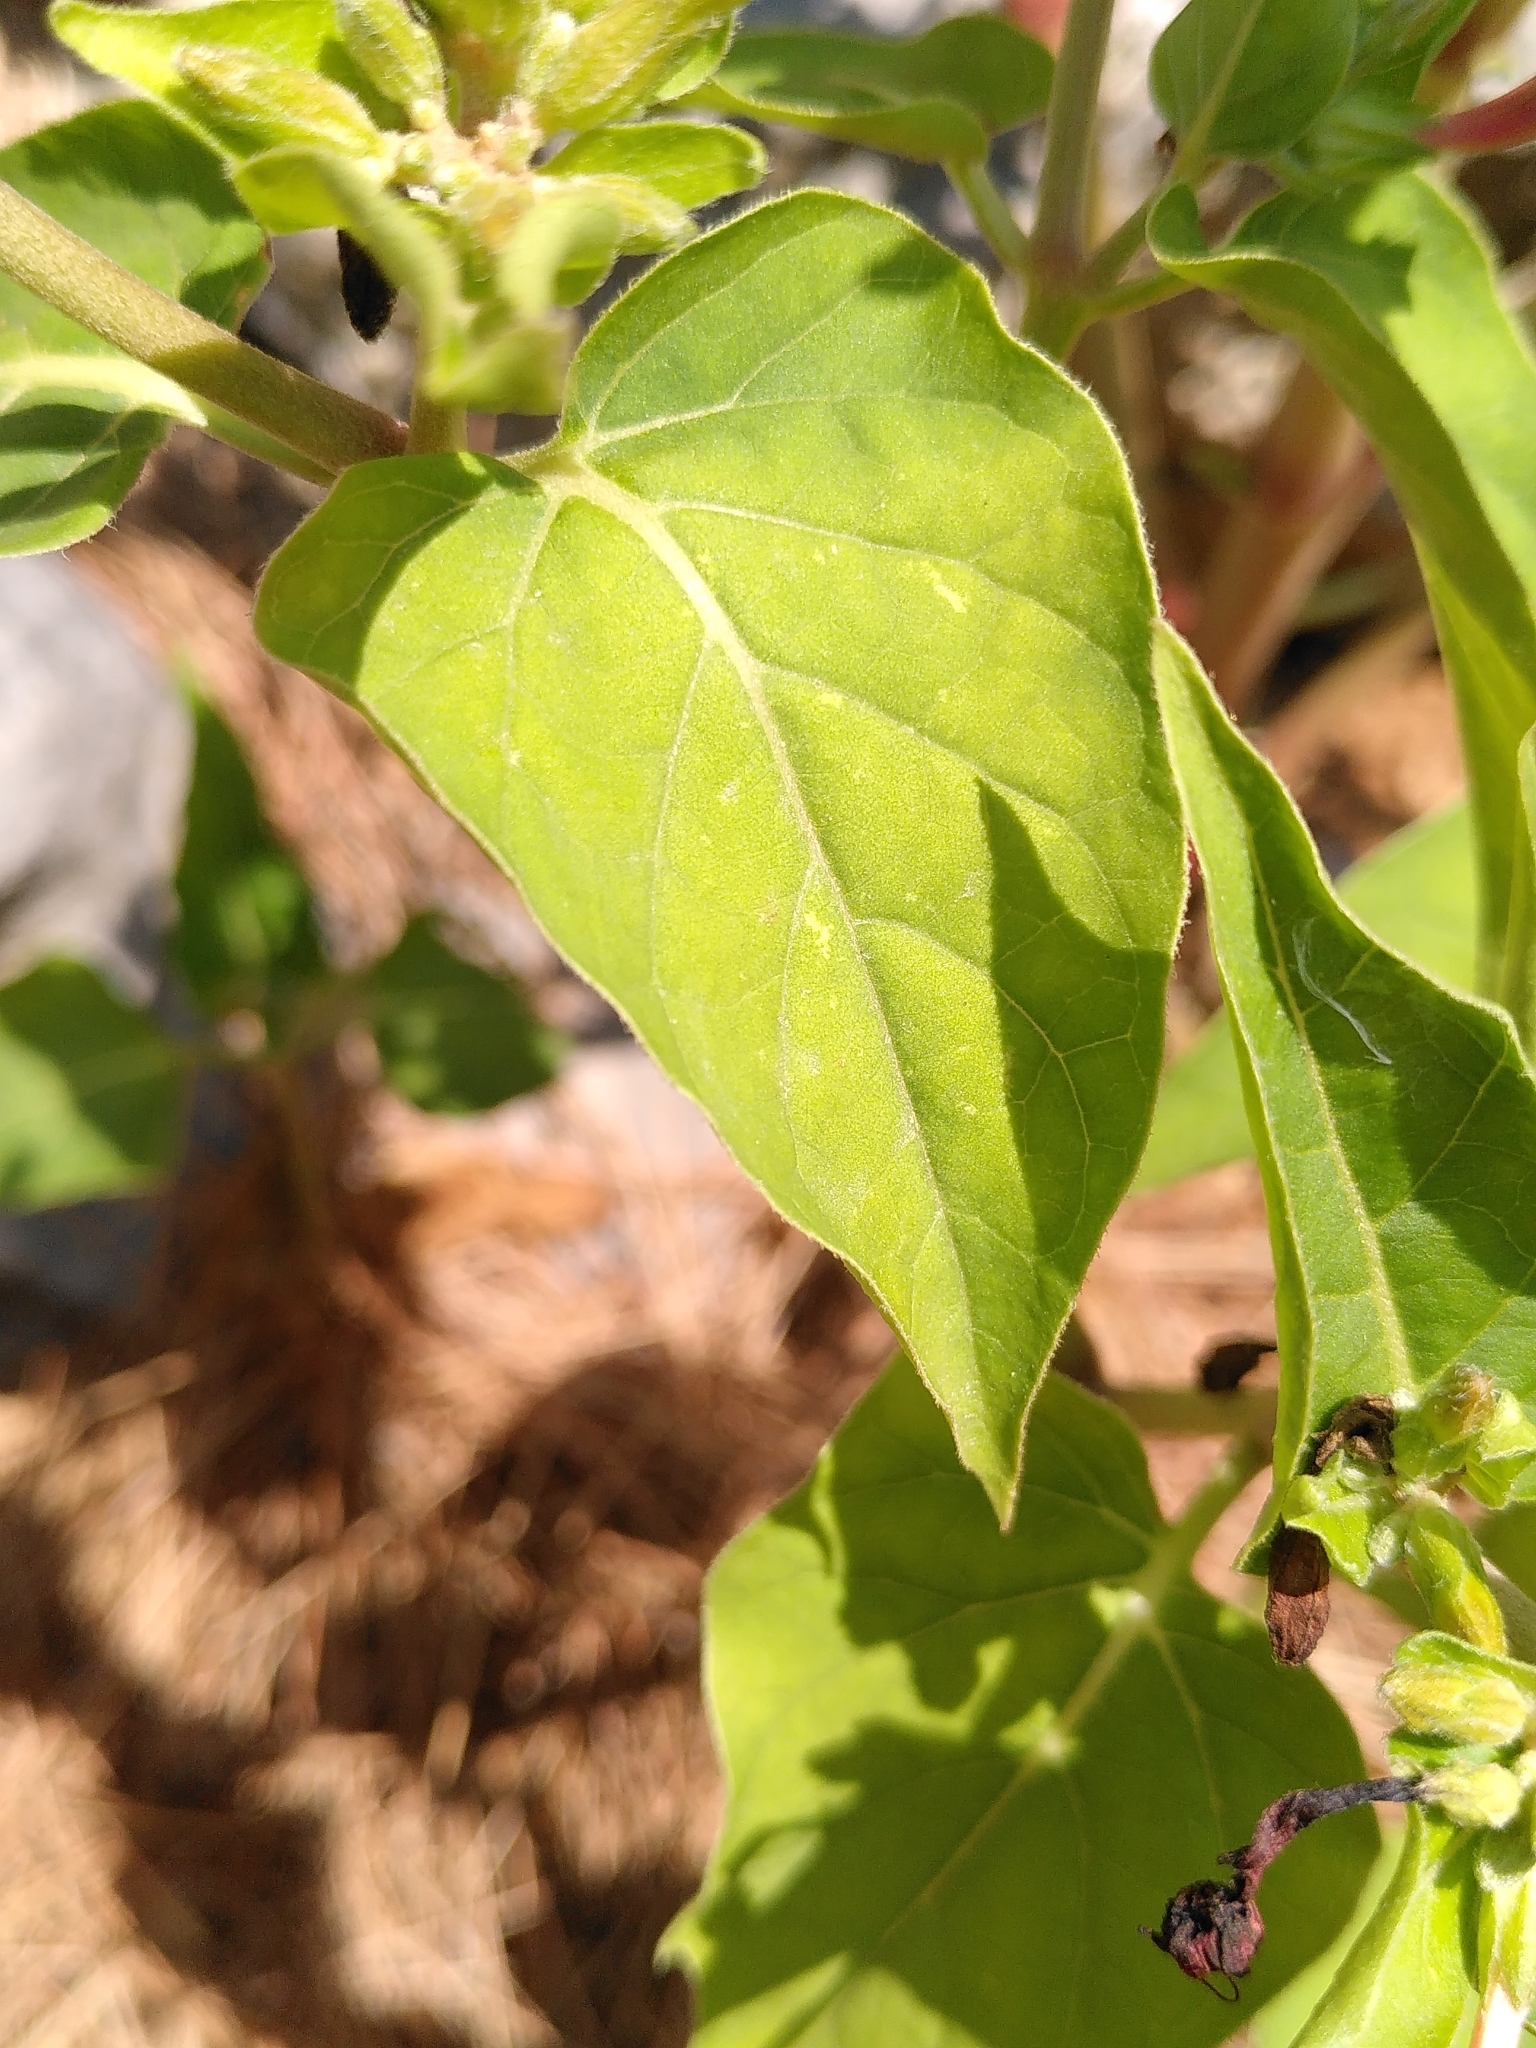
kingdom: Plantae
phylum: Tracheophyta
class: Magnoliopsida
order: Caryophyllales
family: Nyctaginaceae
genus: Mirabilis
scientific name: Mirabilis jalapa
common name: Marvel-of-peru
